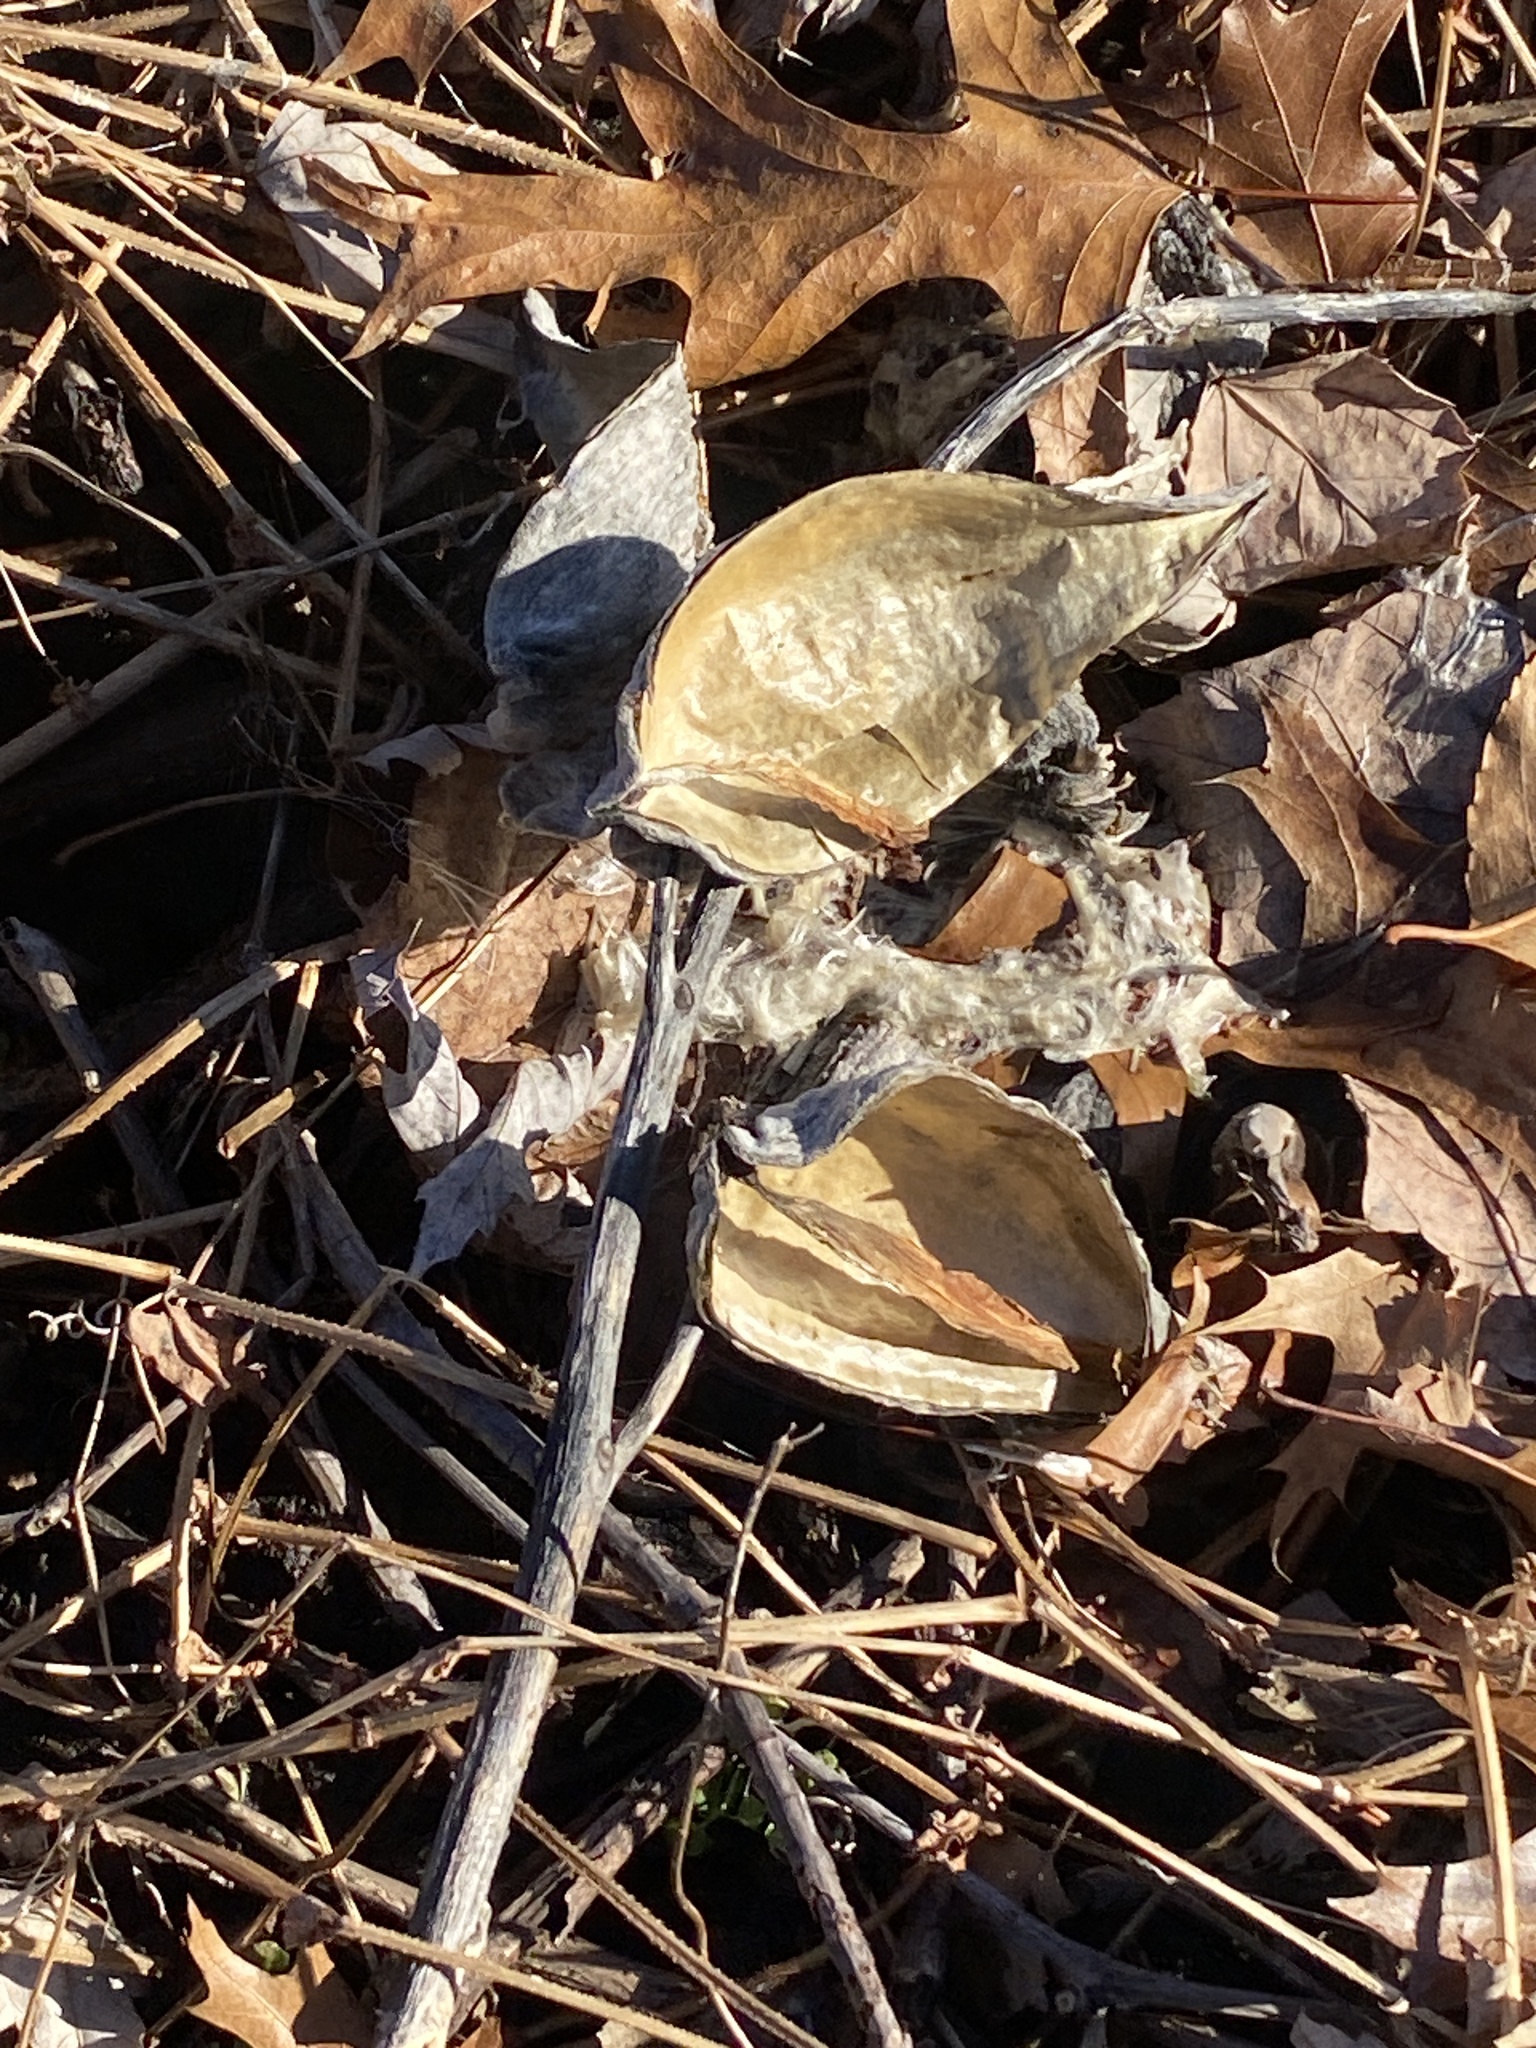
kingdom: Plantae
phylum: Tracheophyta
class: Magnoliopsida
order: Gentianales
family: Apocynaceae
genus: Asclepias
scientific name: Asclepias syriaca
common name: Common milkweed
